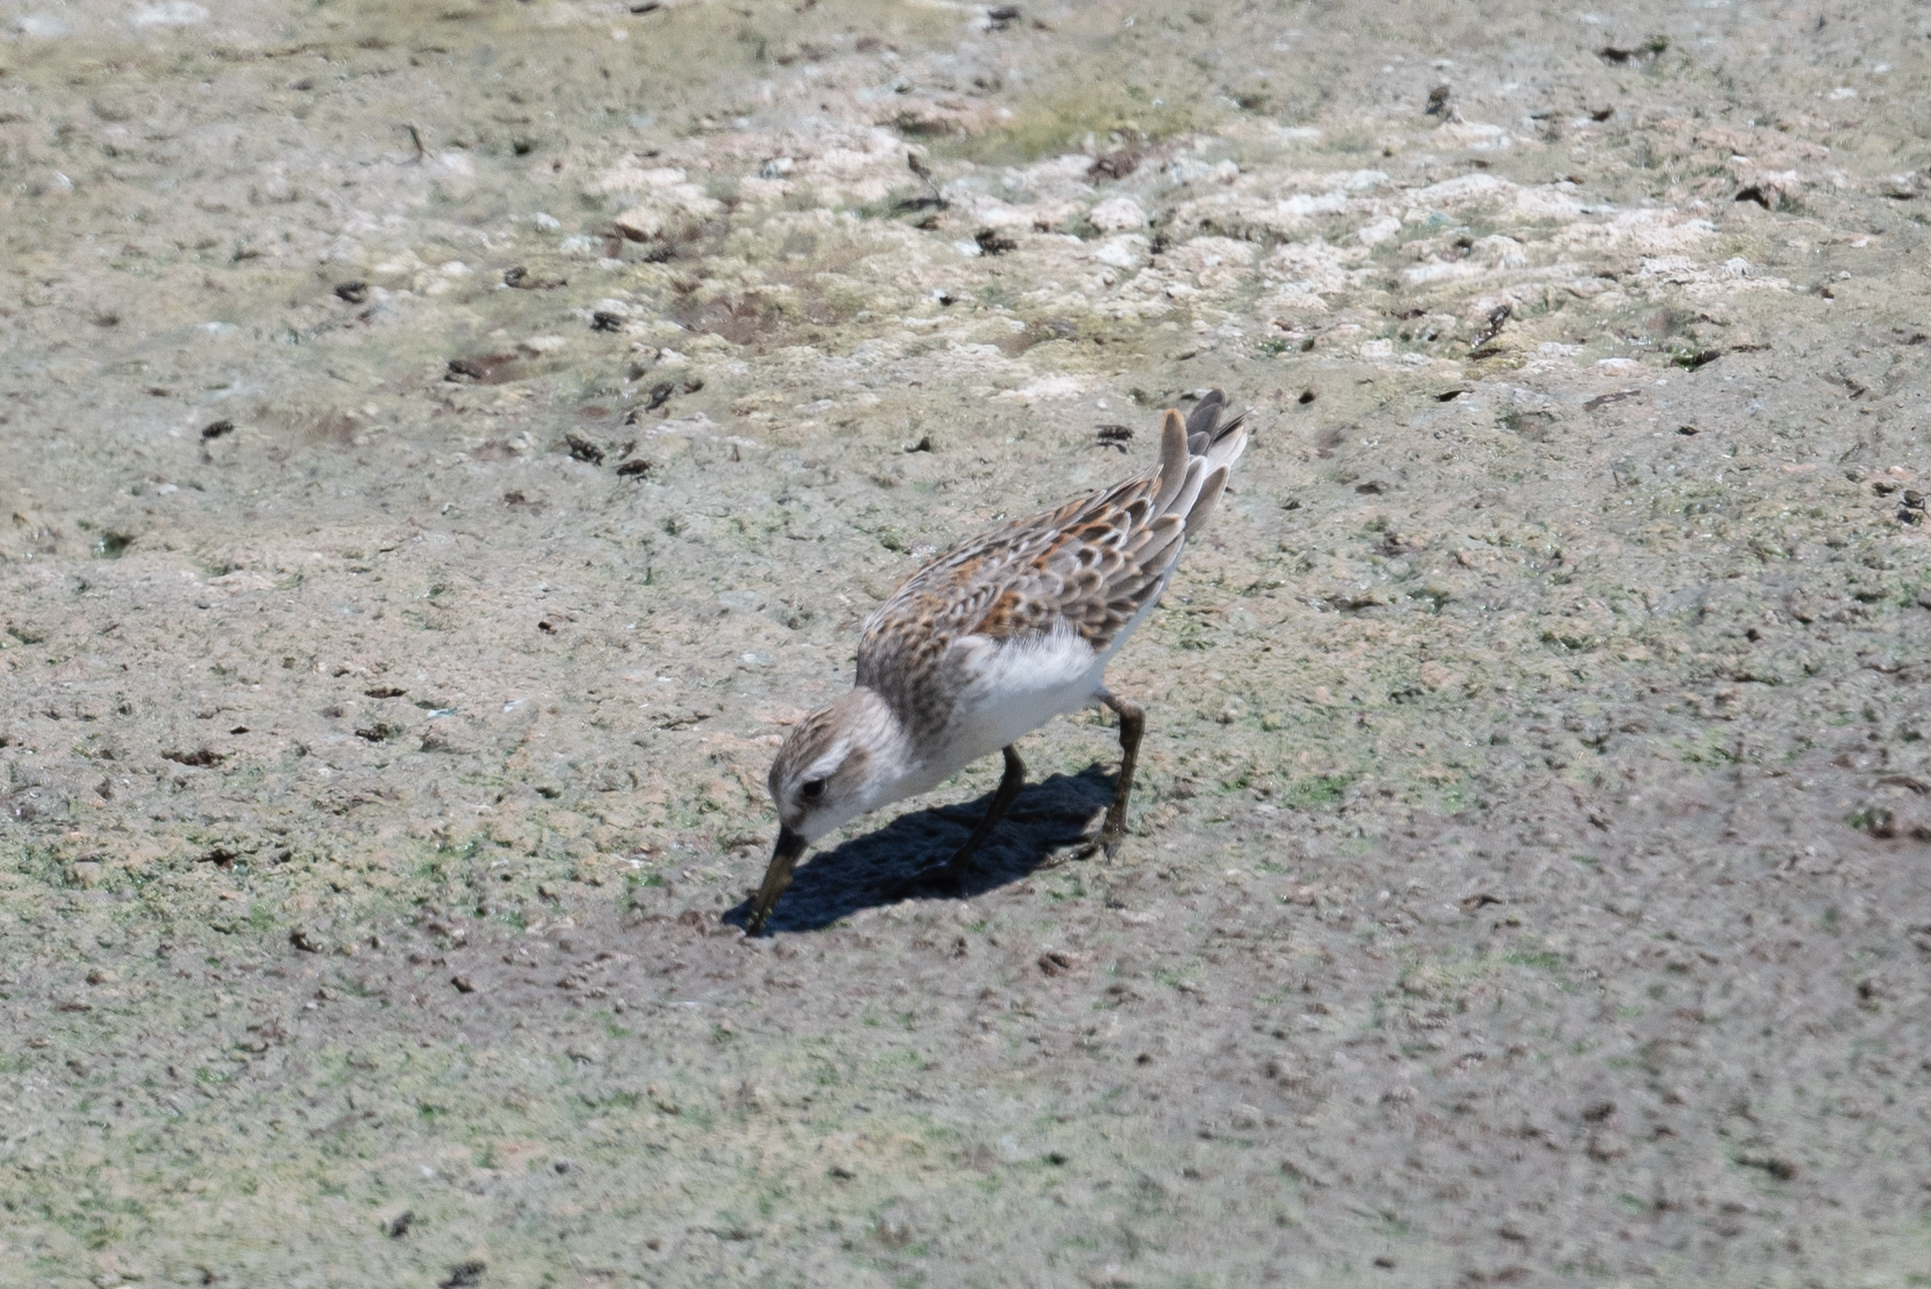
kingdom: Animalia
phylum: Chordata
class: Aves
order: Charadriiformes
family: Scolopacidae
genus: Calidris
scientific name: Calidris mauri
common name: Western sandpiper
